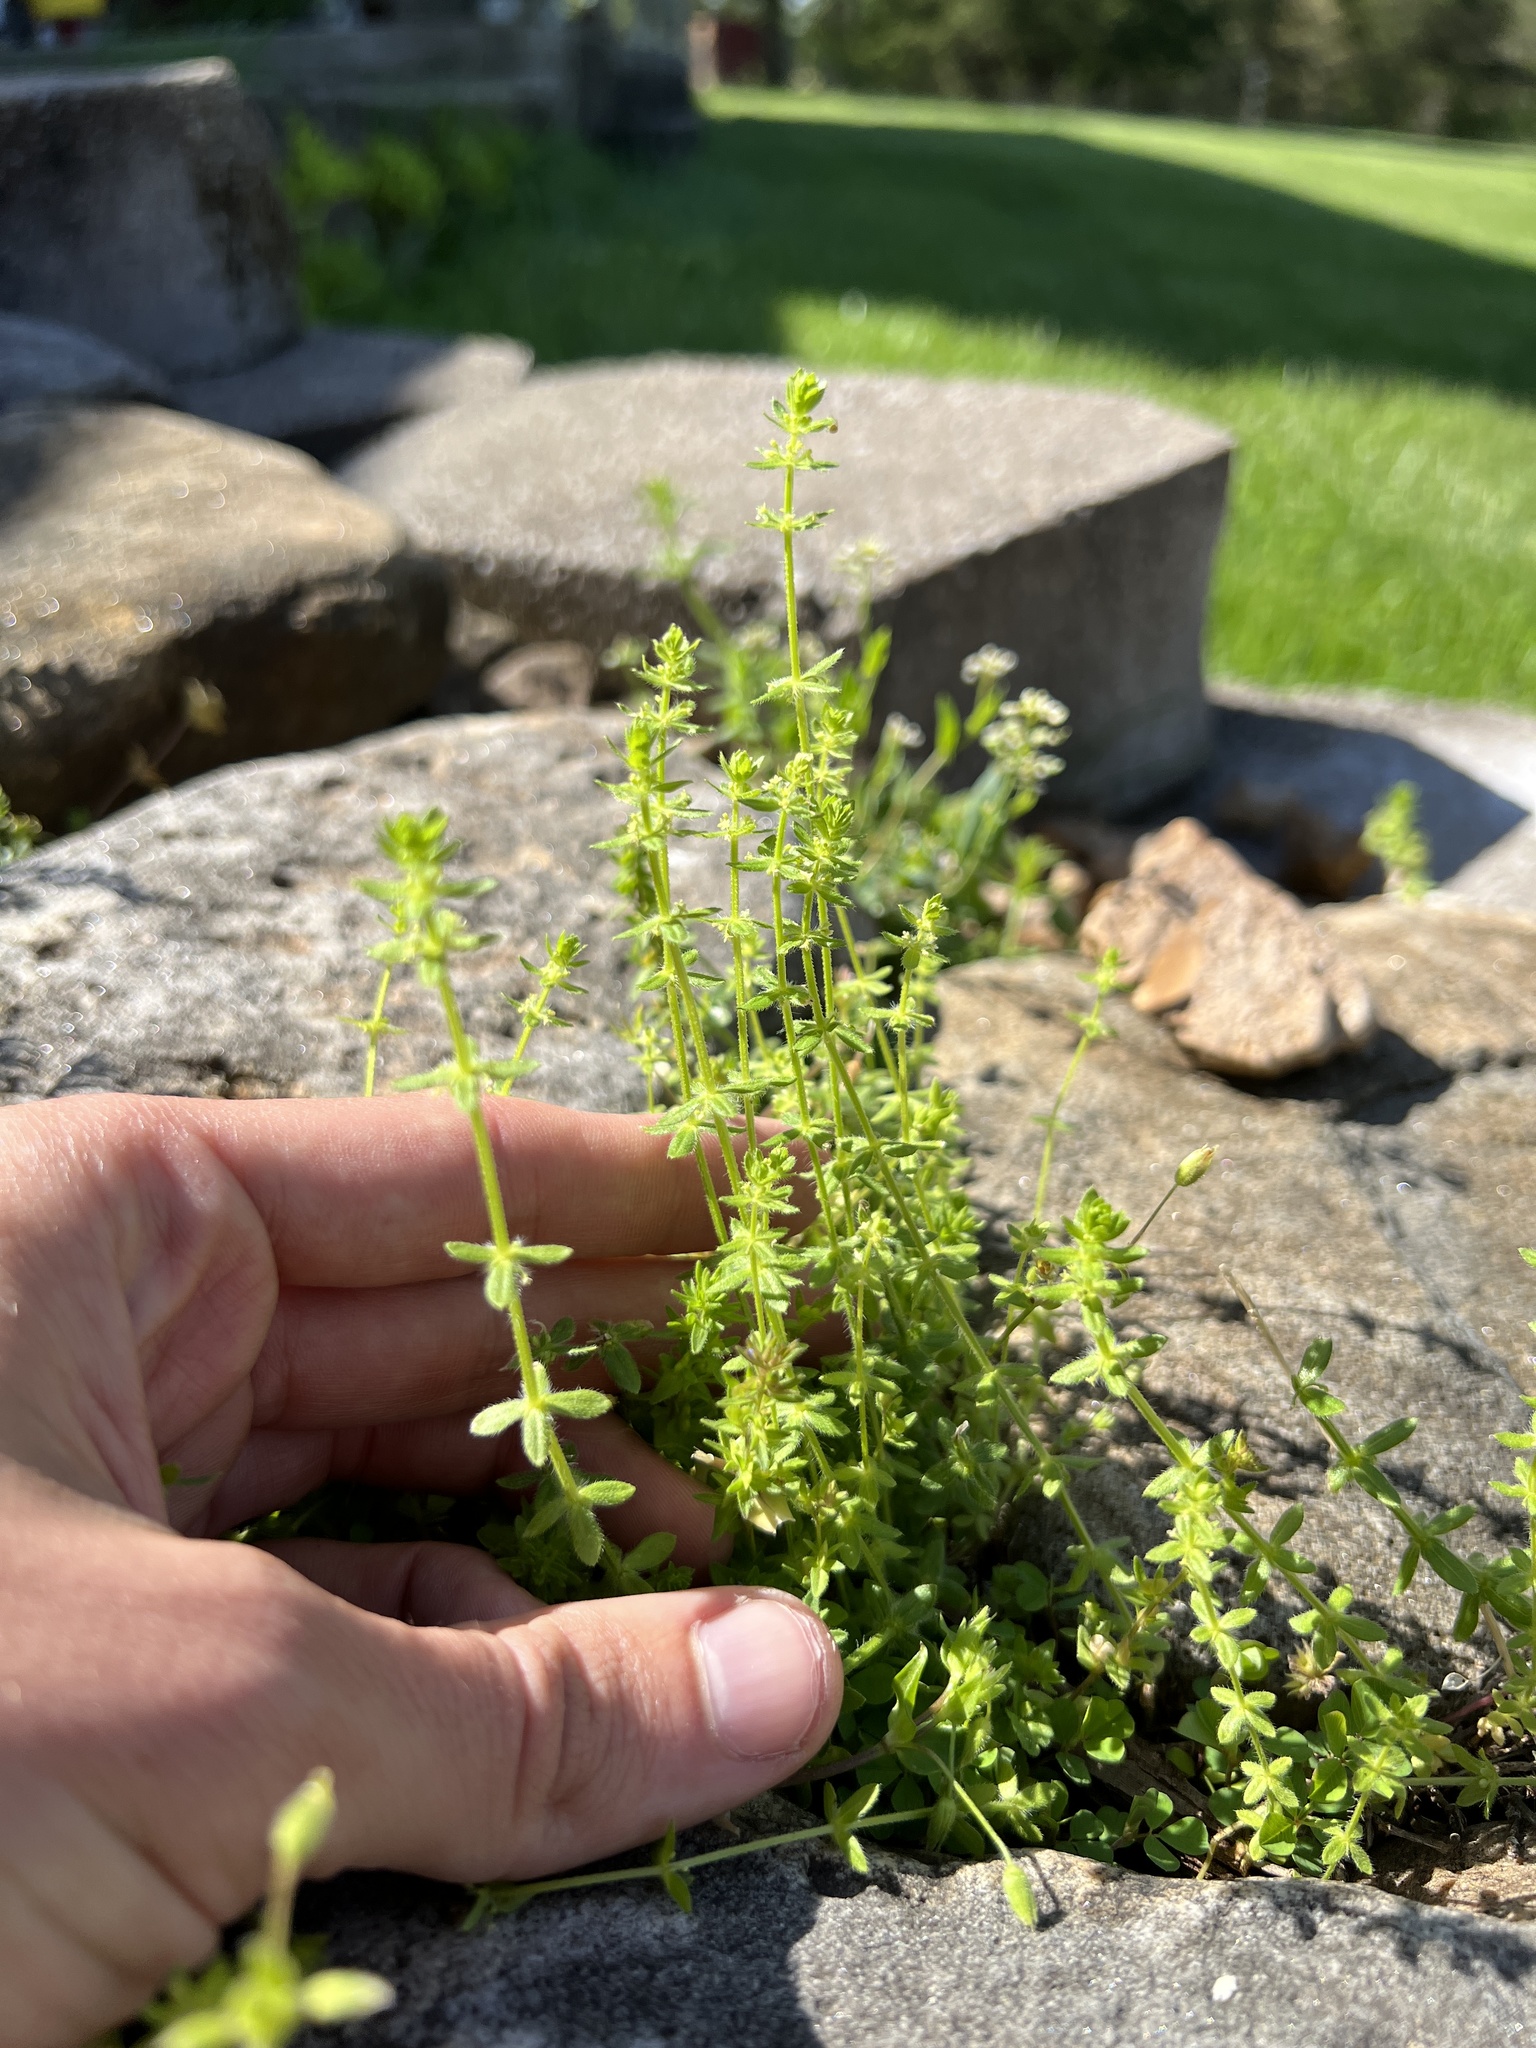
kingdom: Plantae
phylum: Tracheophyta
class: Magnoliopsida
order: Gentianales
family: Rubiaceae
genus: Cruciata
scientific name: Cruciata pedemontana
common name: Piedmont bedstraw
